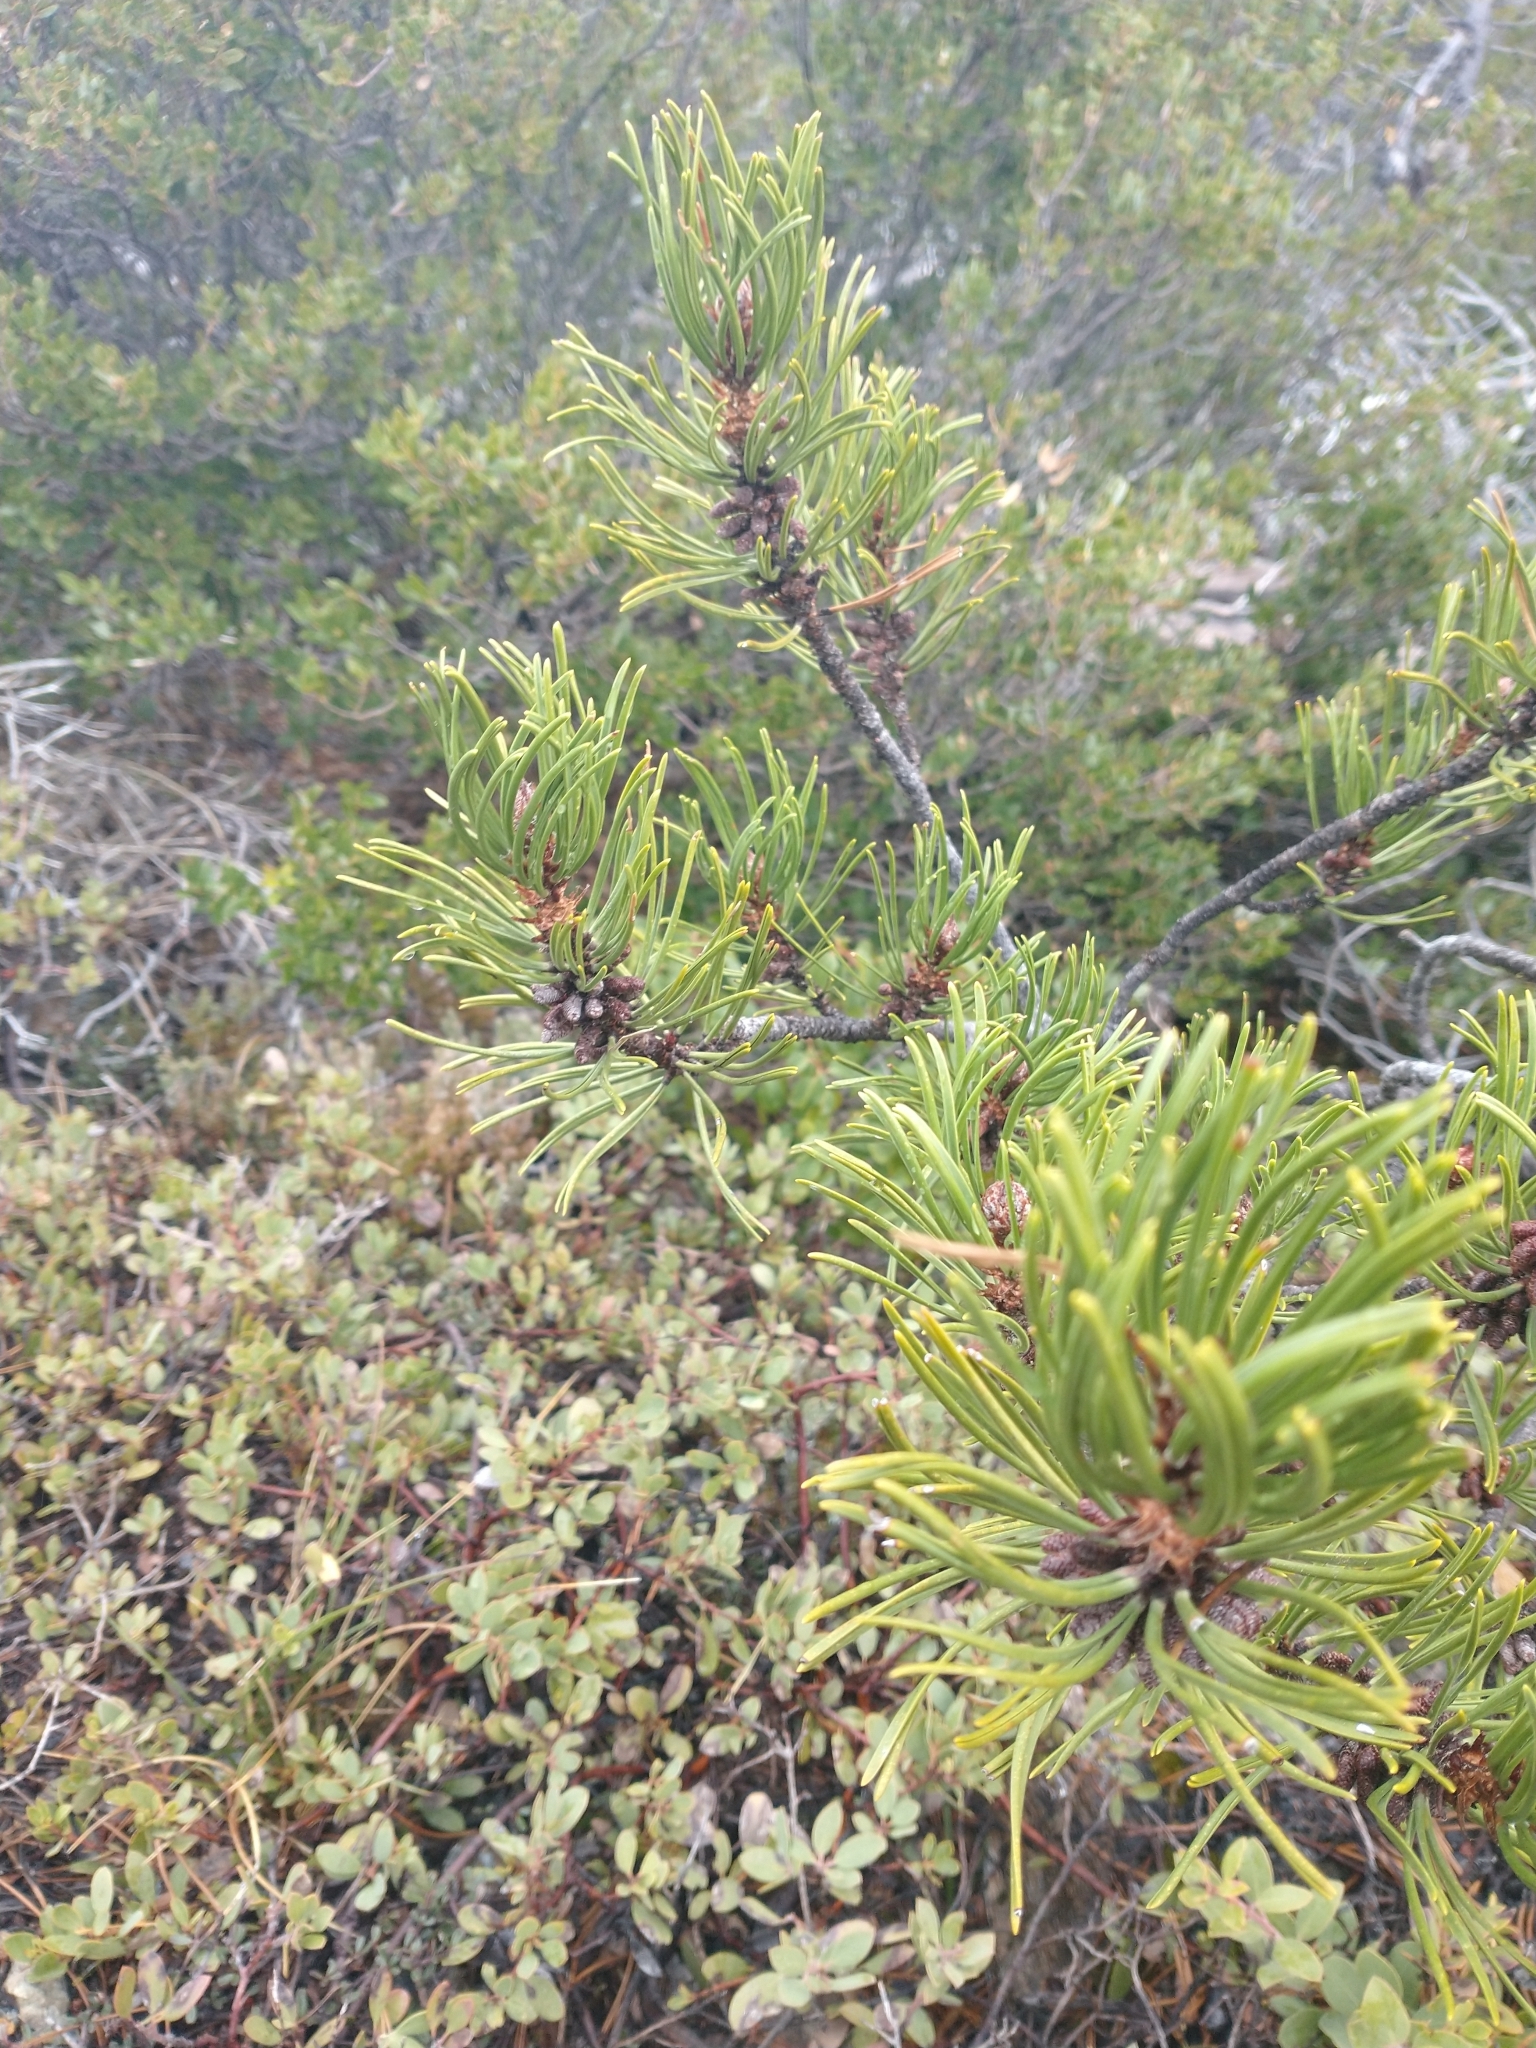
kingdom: Plantae
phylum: Tracheophyta
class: Pinopsida
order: Pinales
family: Pinaceae
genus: Pinus
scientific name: Pinus contorta
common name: Lodgepole pine
